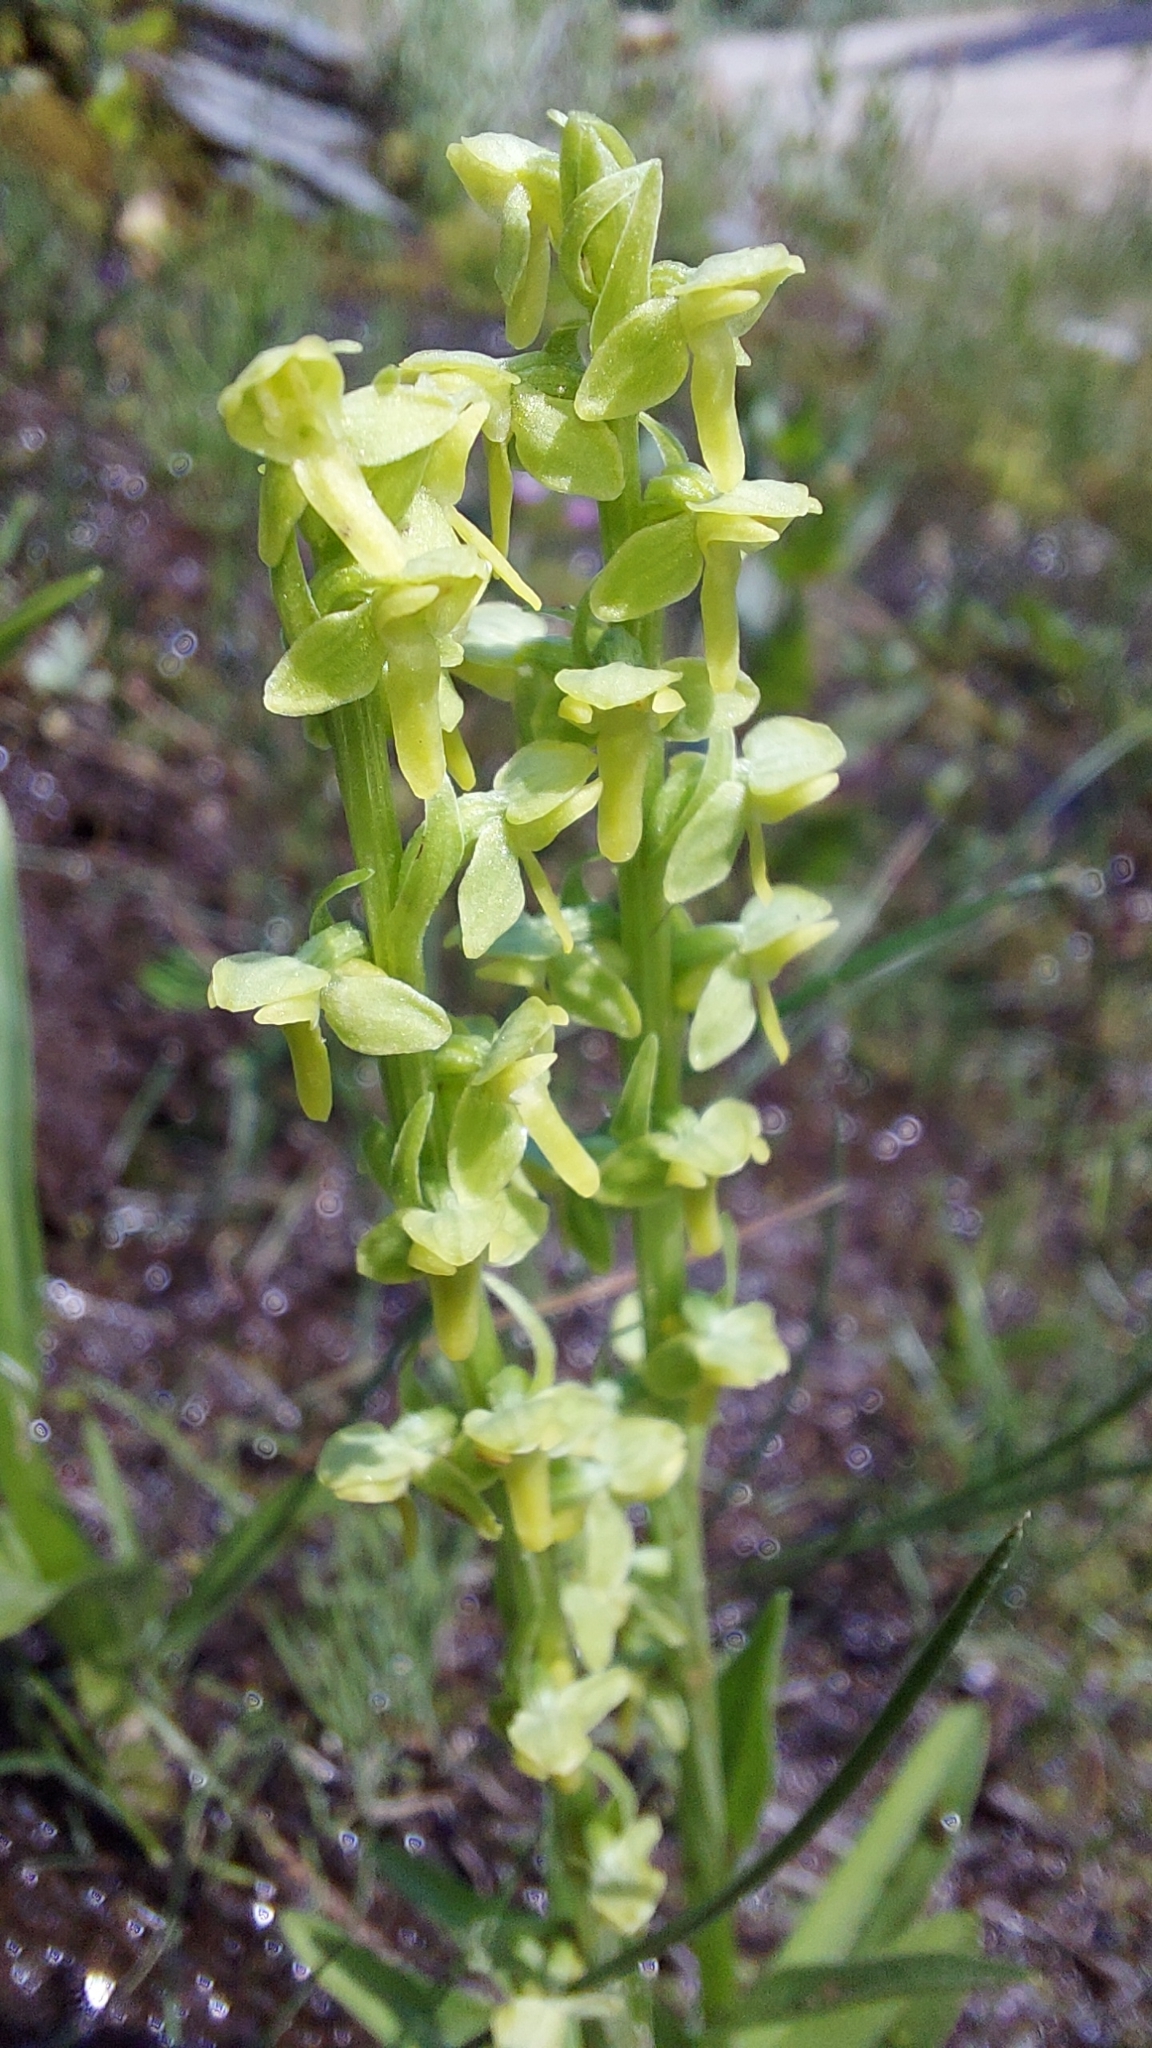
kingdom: Plantae
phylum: Tracheophyta
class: Liliopsida
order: Asparagales
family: Orchidaceae
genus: Platanthera
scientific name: Platanthera stricta
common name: Slender bog orchid
